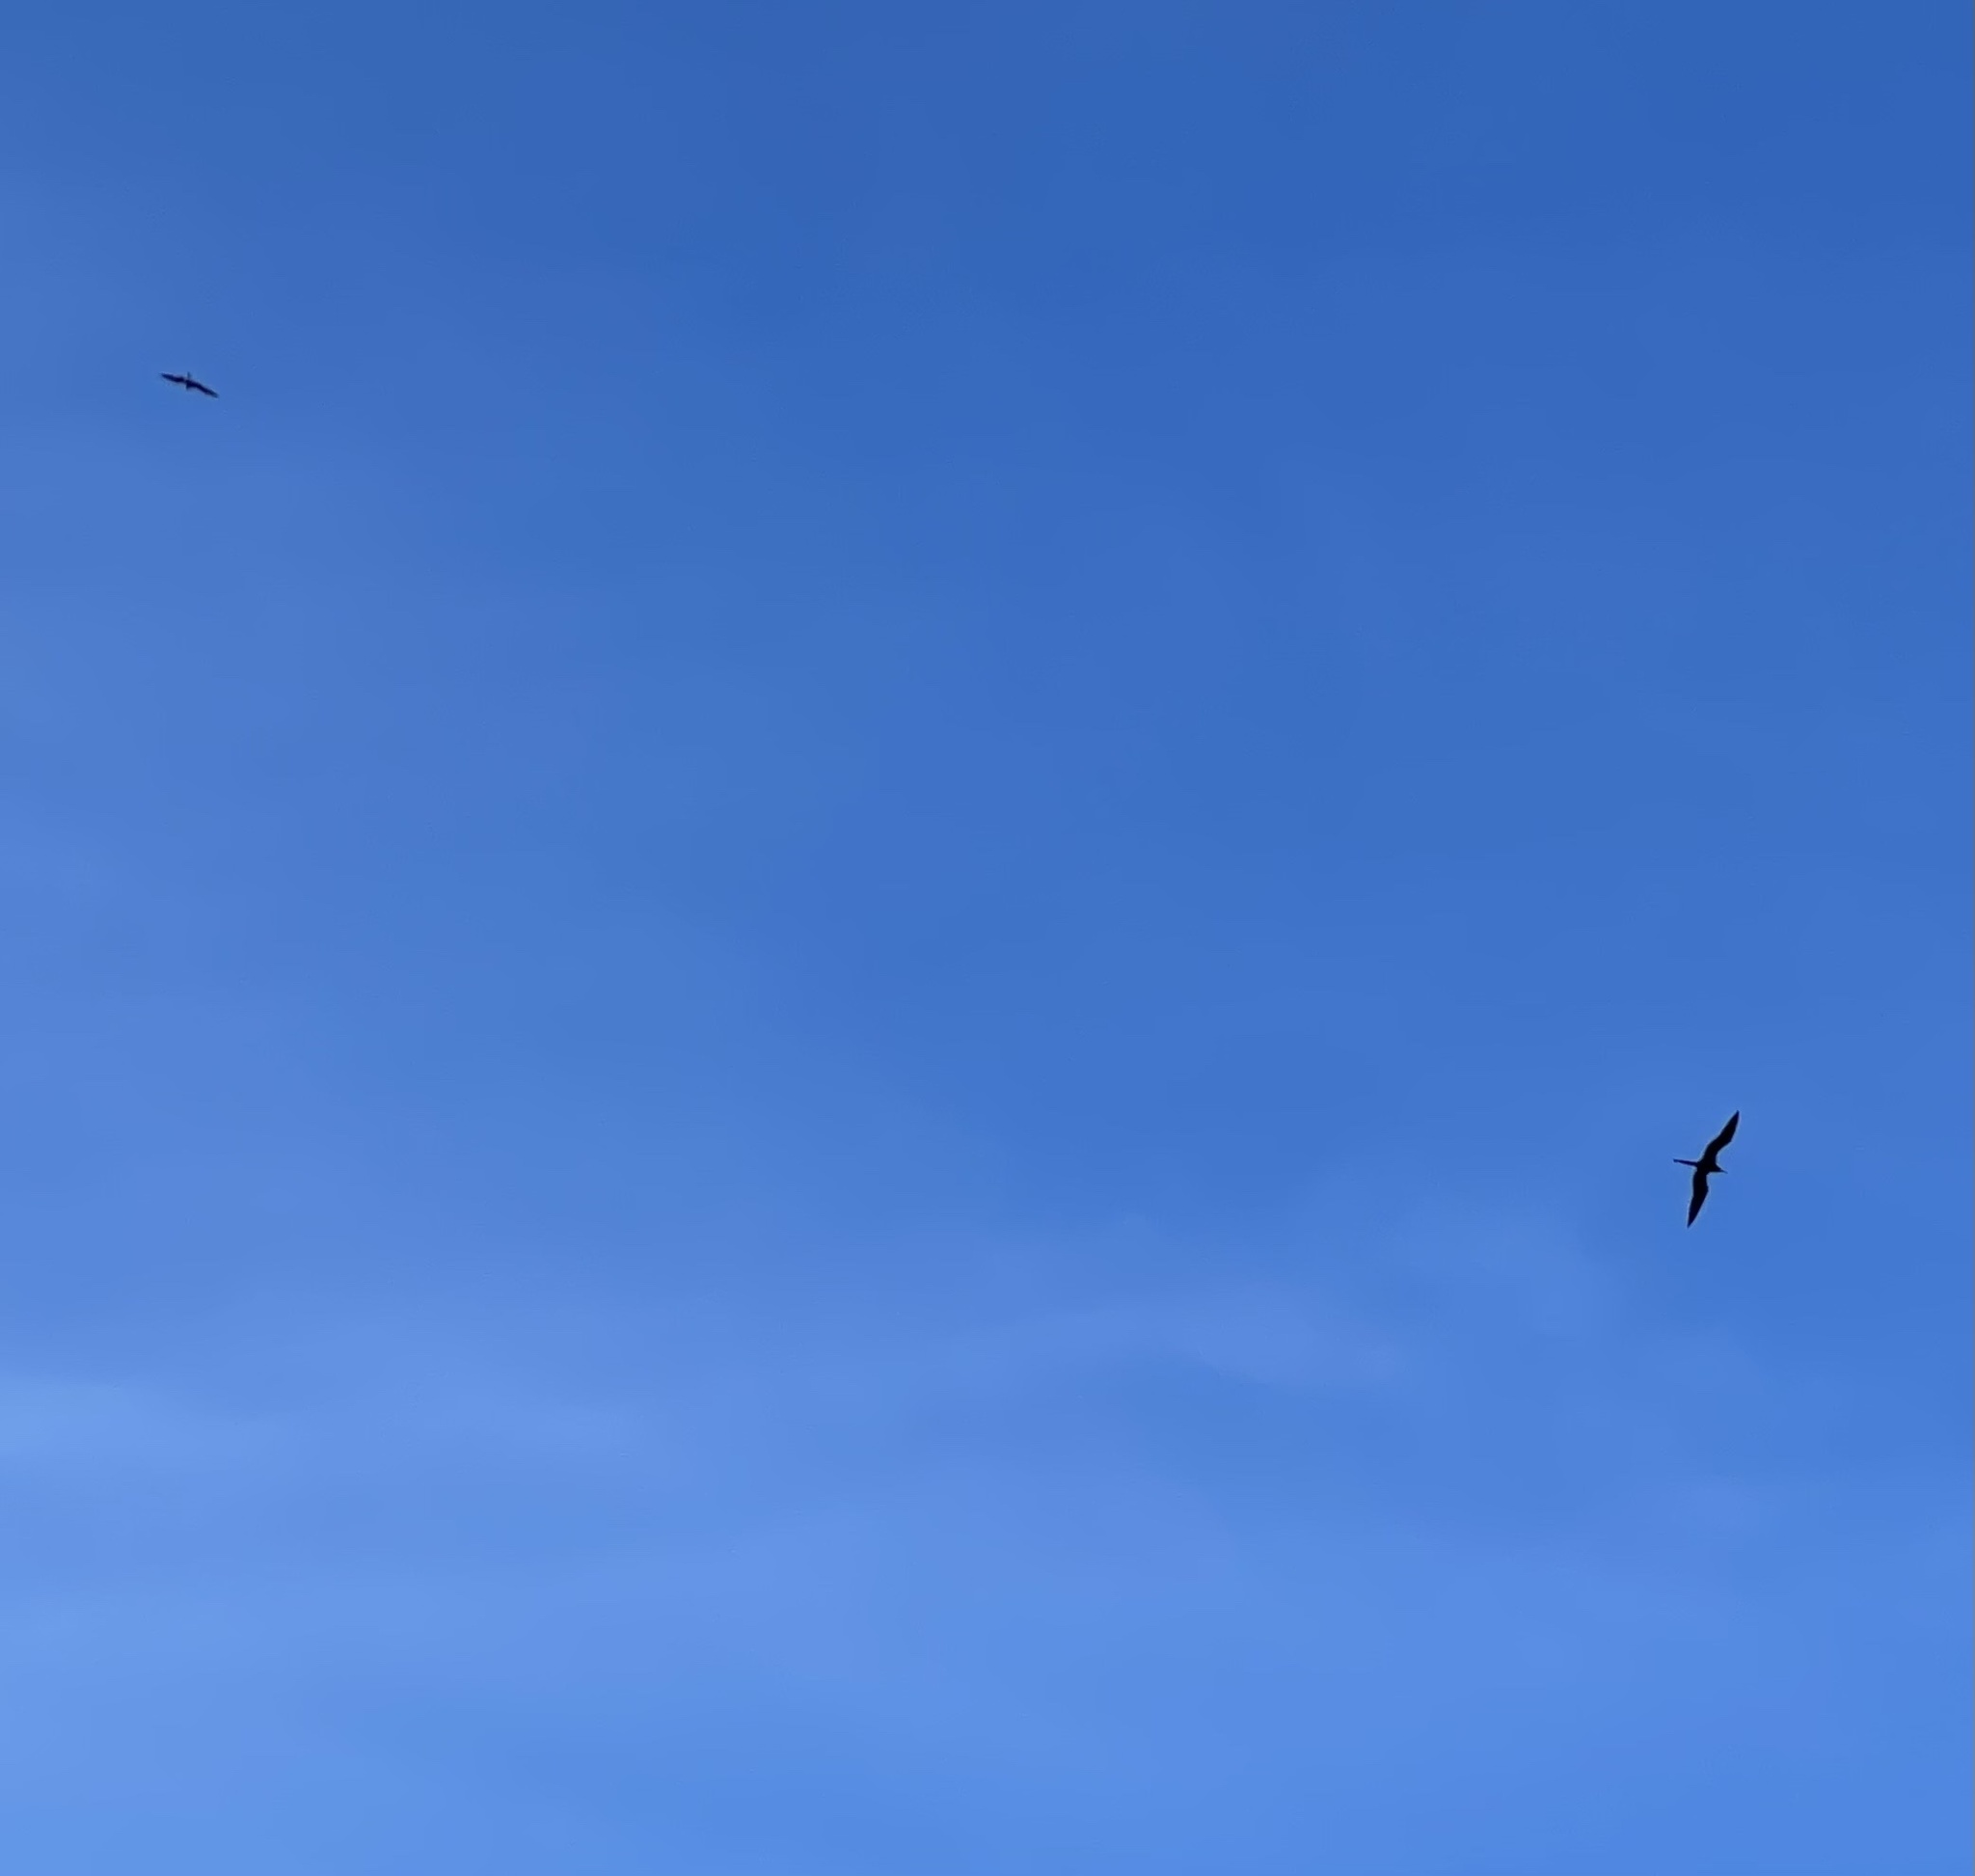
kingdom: Animalia
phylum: Chordata
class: Aves
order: Suliformes
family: Fregatidae
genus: Fregata
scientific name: Fregata magnificens
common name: Magnificent frigatebird
